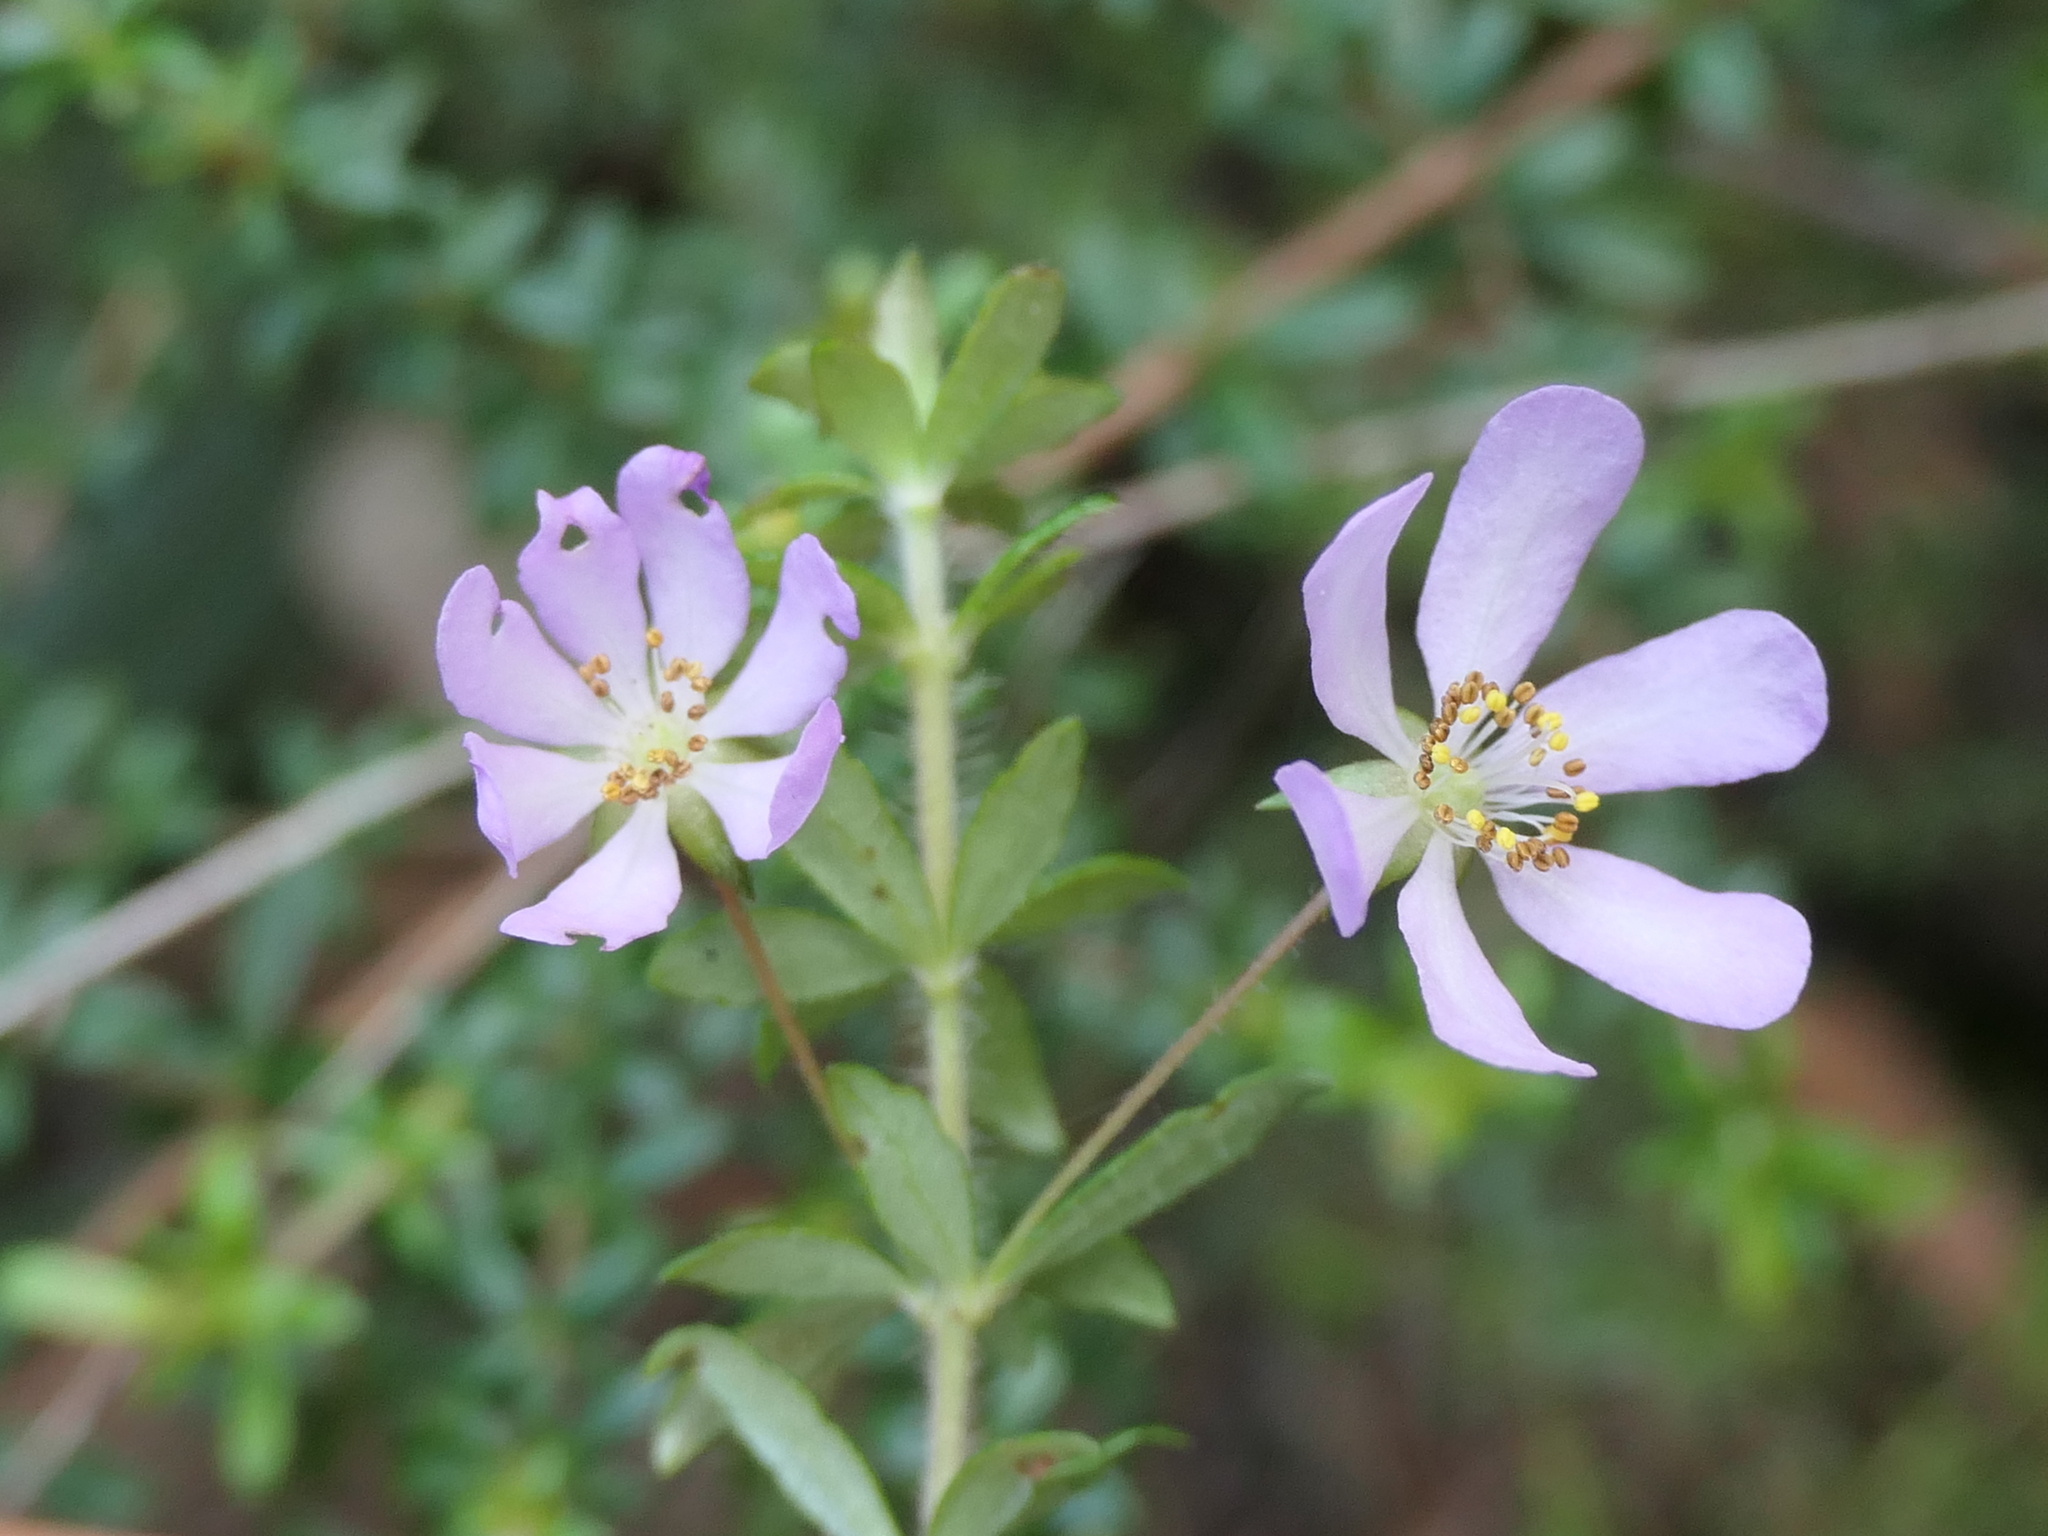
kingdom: Plantae
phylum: Tracheophyta
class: Magnoliopsida
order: Oxalidales
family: Cunoniaceae
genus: Bauera
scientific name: Bauera rubioides
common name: River-rose
